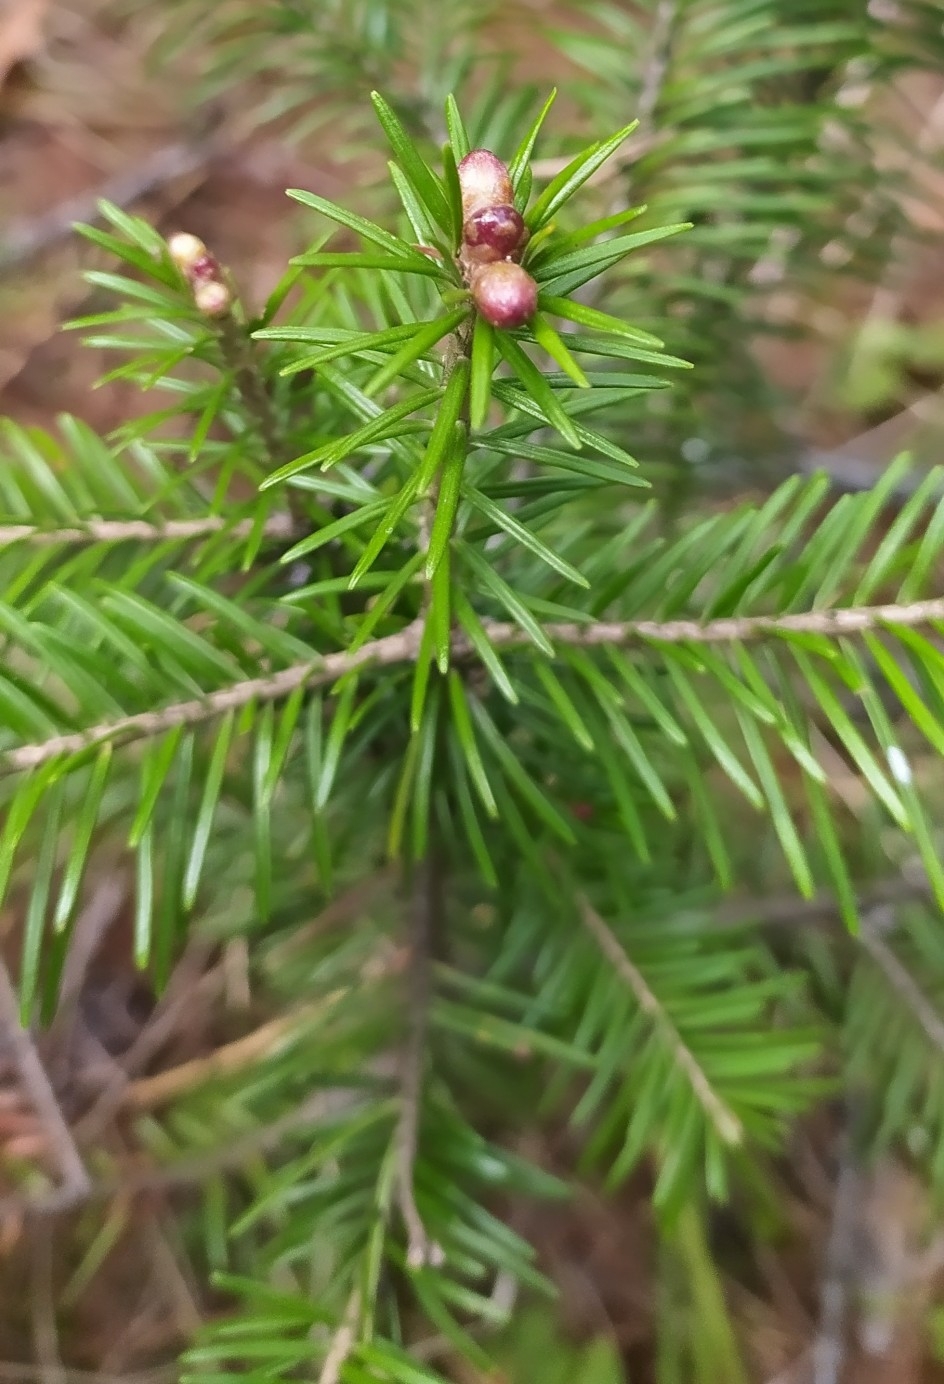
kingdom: Plantae
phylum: Tracheophyta
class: Pinopsida
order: Pinales
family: Pinaceae
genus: Abies
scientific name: Abies sibirica
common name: Siberian fir
